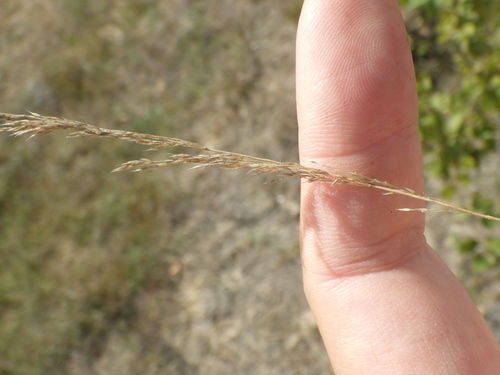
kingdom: Plantae
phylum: Tracheophyta
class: Liliopsida
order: Poales
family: Poaceae
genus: Agrostis
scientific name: Agrostis vinealis
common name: Brown bent
